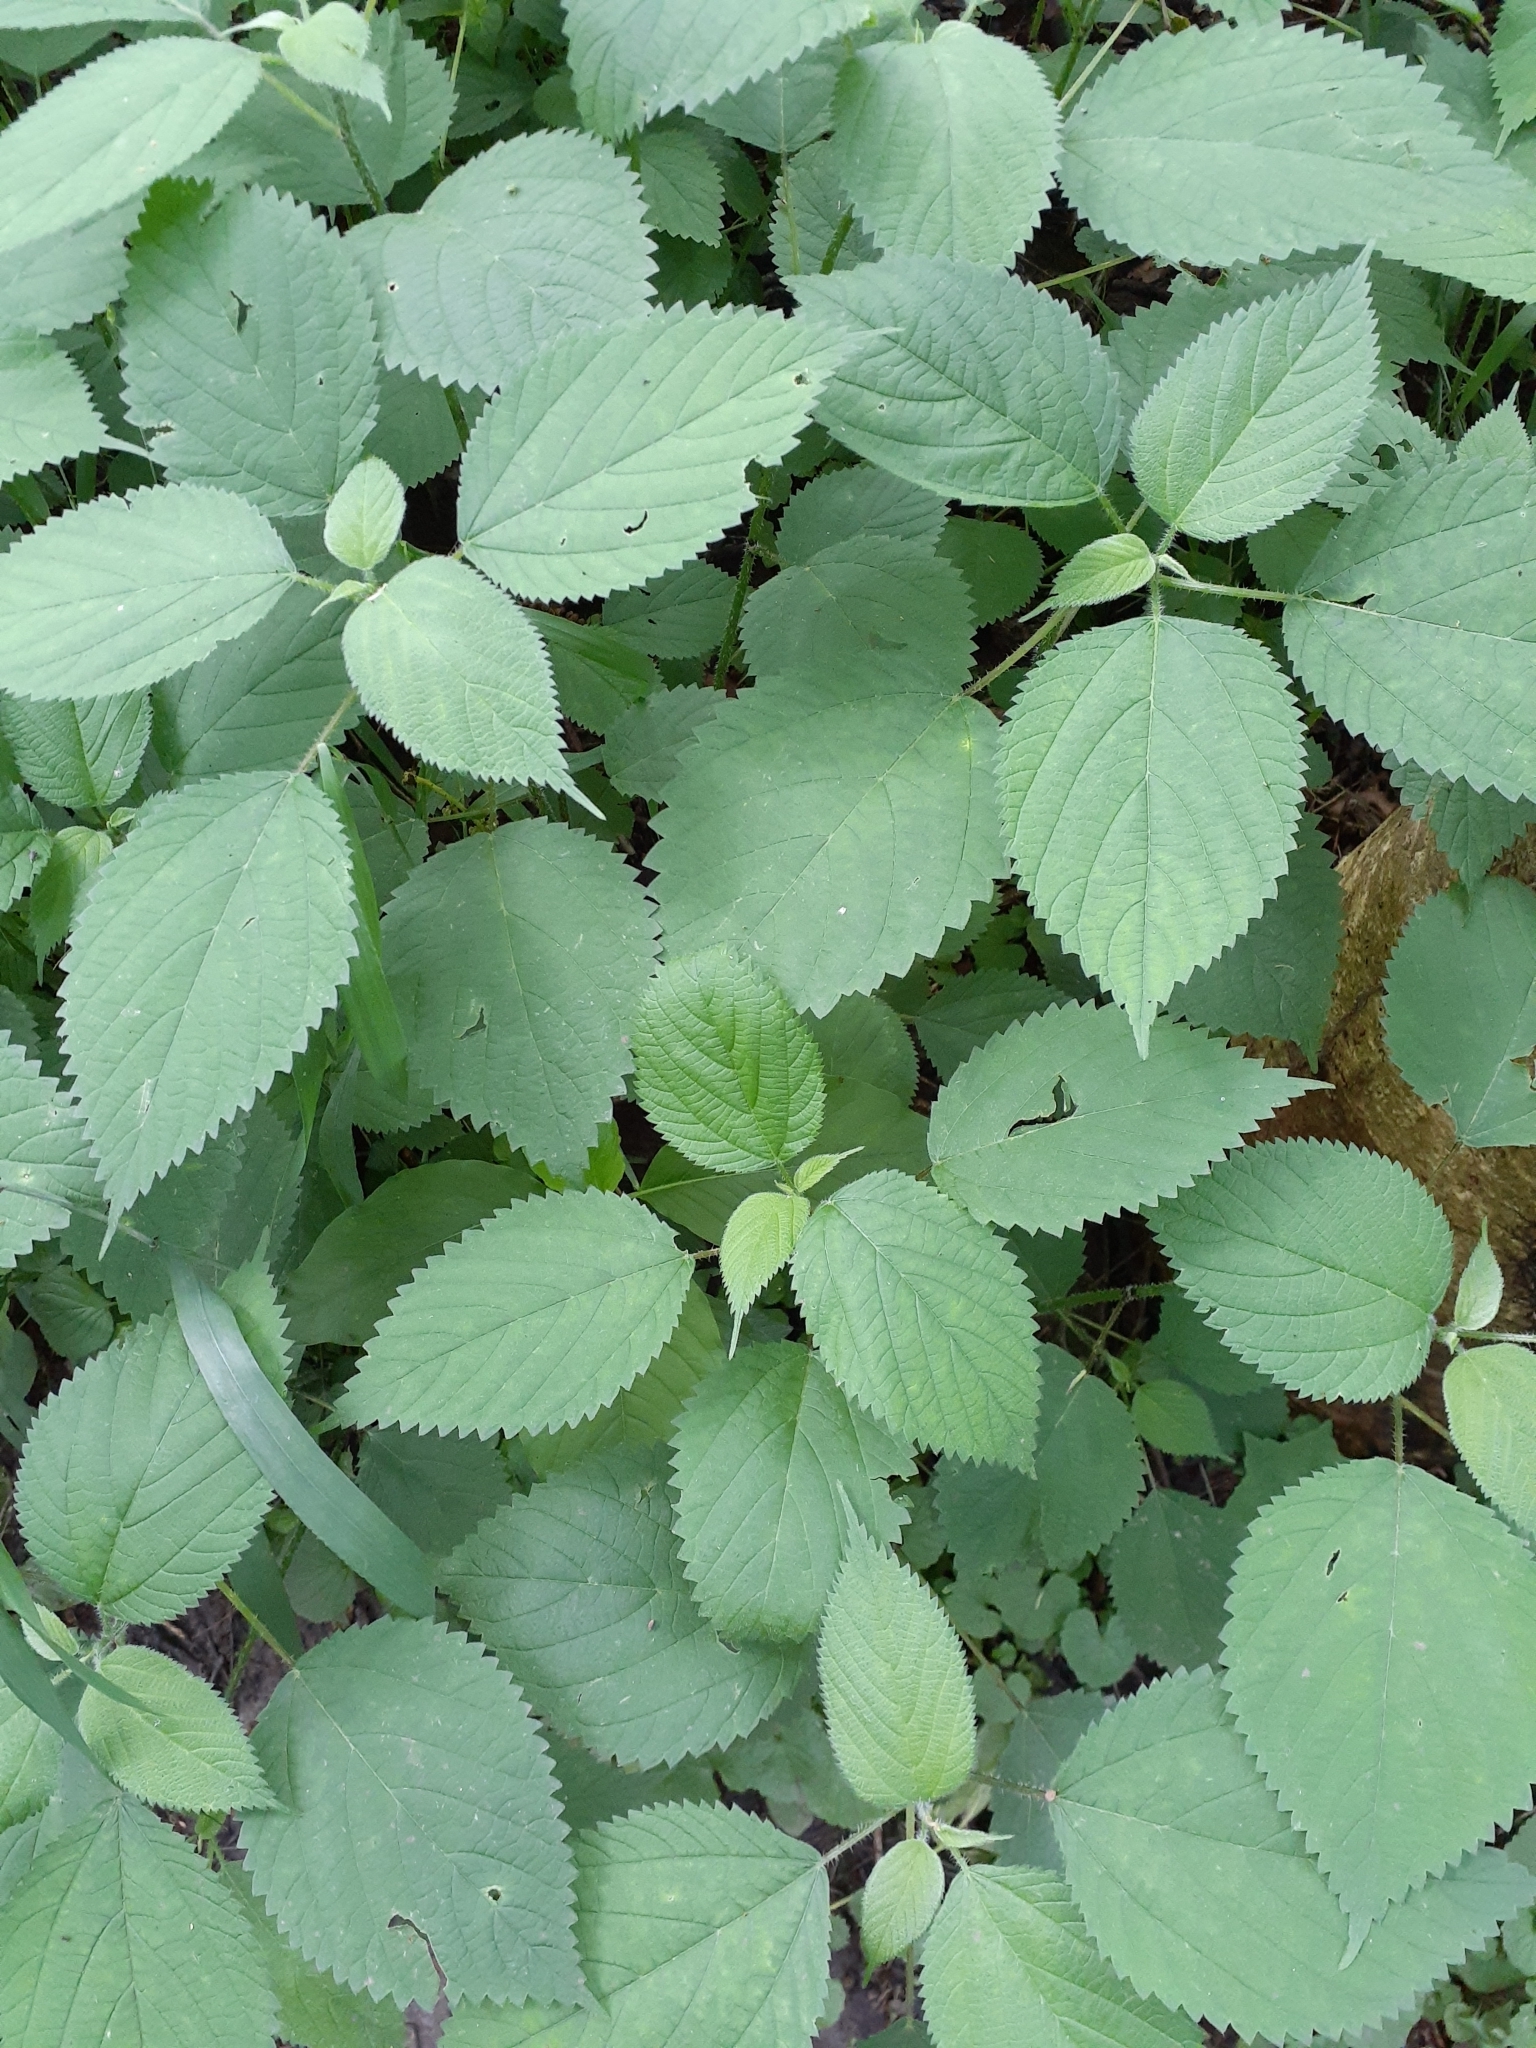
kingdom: Plantae
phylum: Tracheophyta
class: Magnoliopsida
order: Rosales
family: Urticaceae
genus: Laportea
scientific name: Laportea canadensis
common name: Canada nettle
